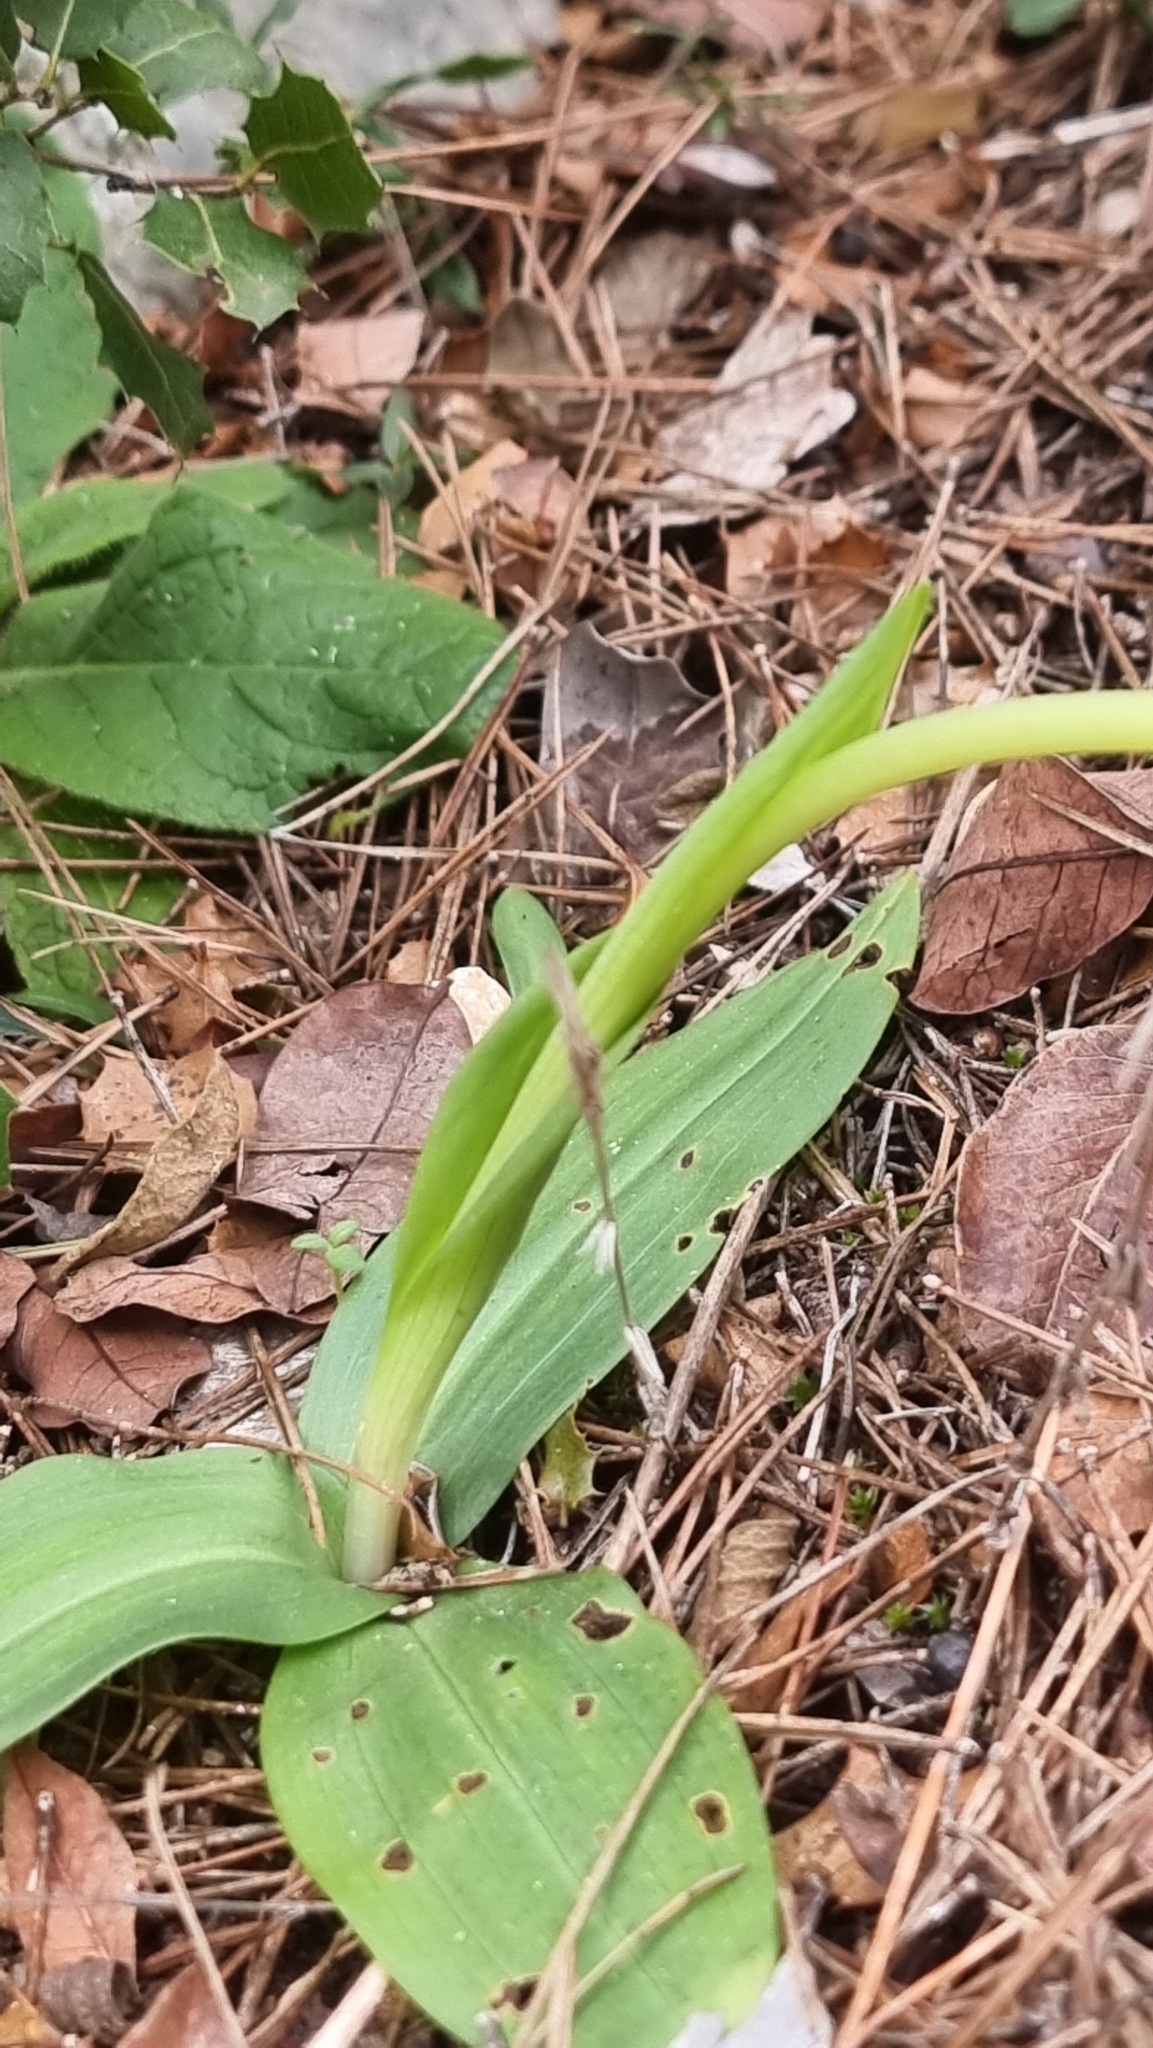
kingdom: Plantae
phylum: Tracheophyta
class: Liliopsida
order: Asparagales
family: Orchidaceae
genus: Ophrys
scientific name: Ophrys fusca
